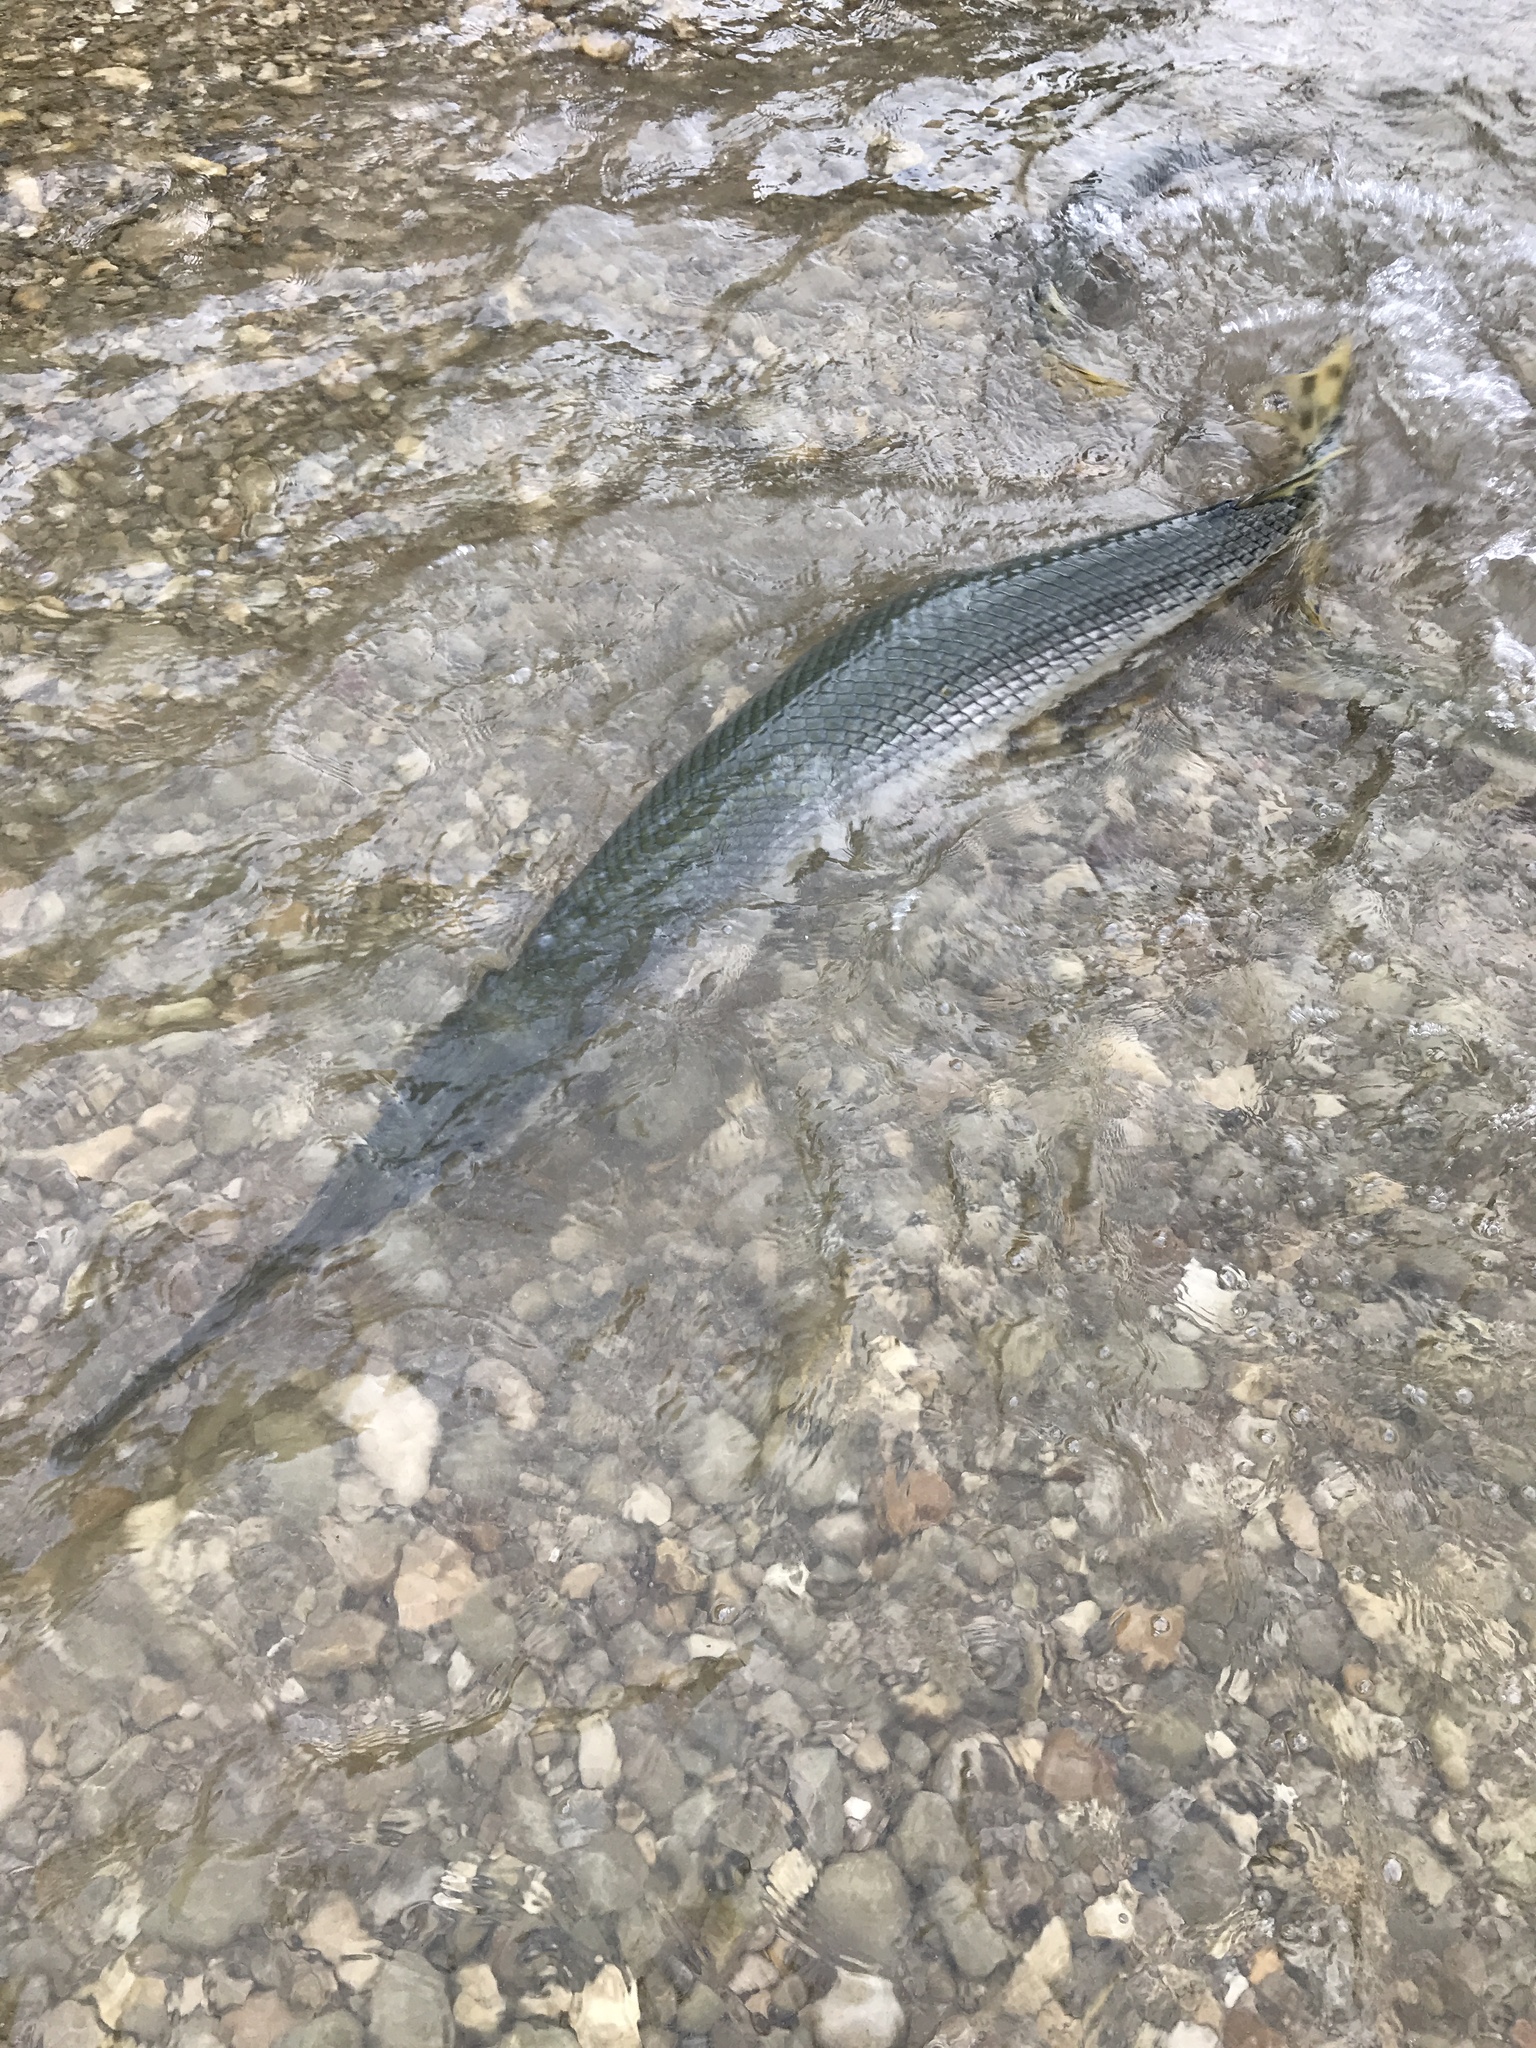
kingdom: Animalia
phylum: Chordata
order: Lepisosteiformes
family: Lepisosteidae
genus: Lepisosteus
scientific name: Lepisosteus osseus
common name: Longnose gar
